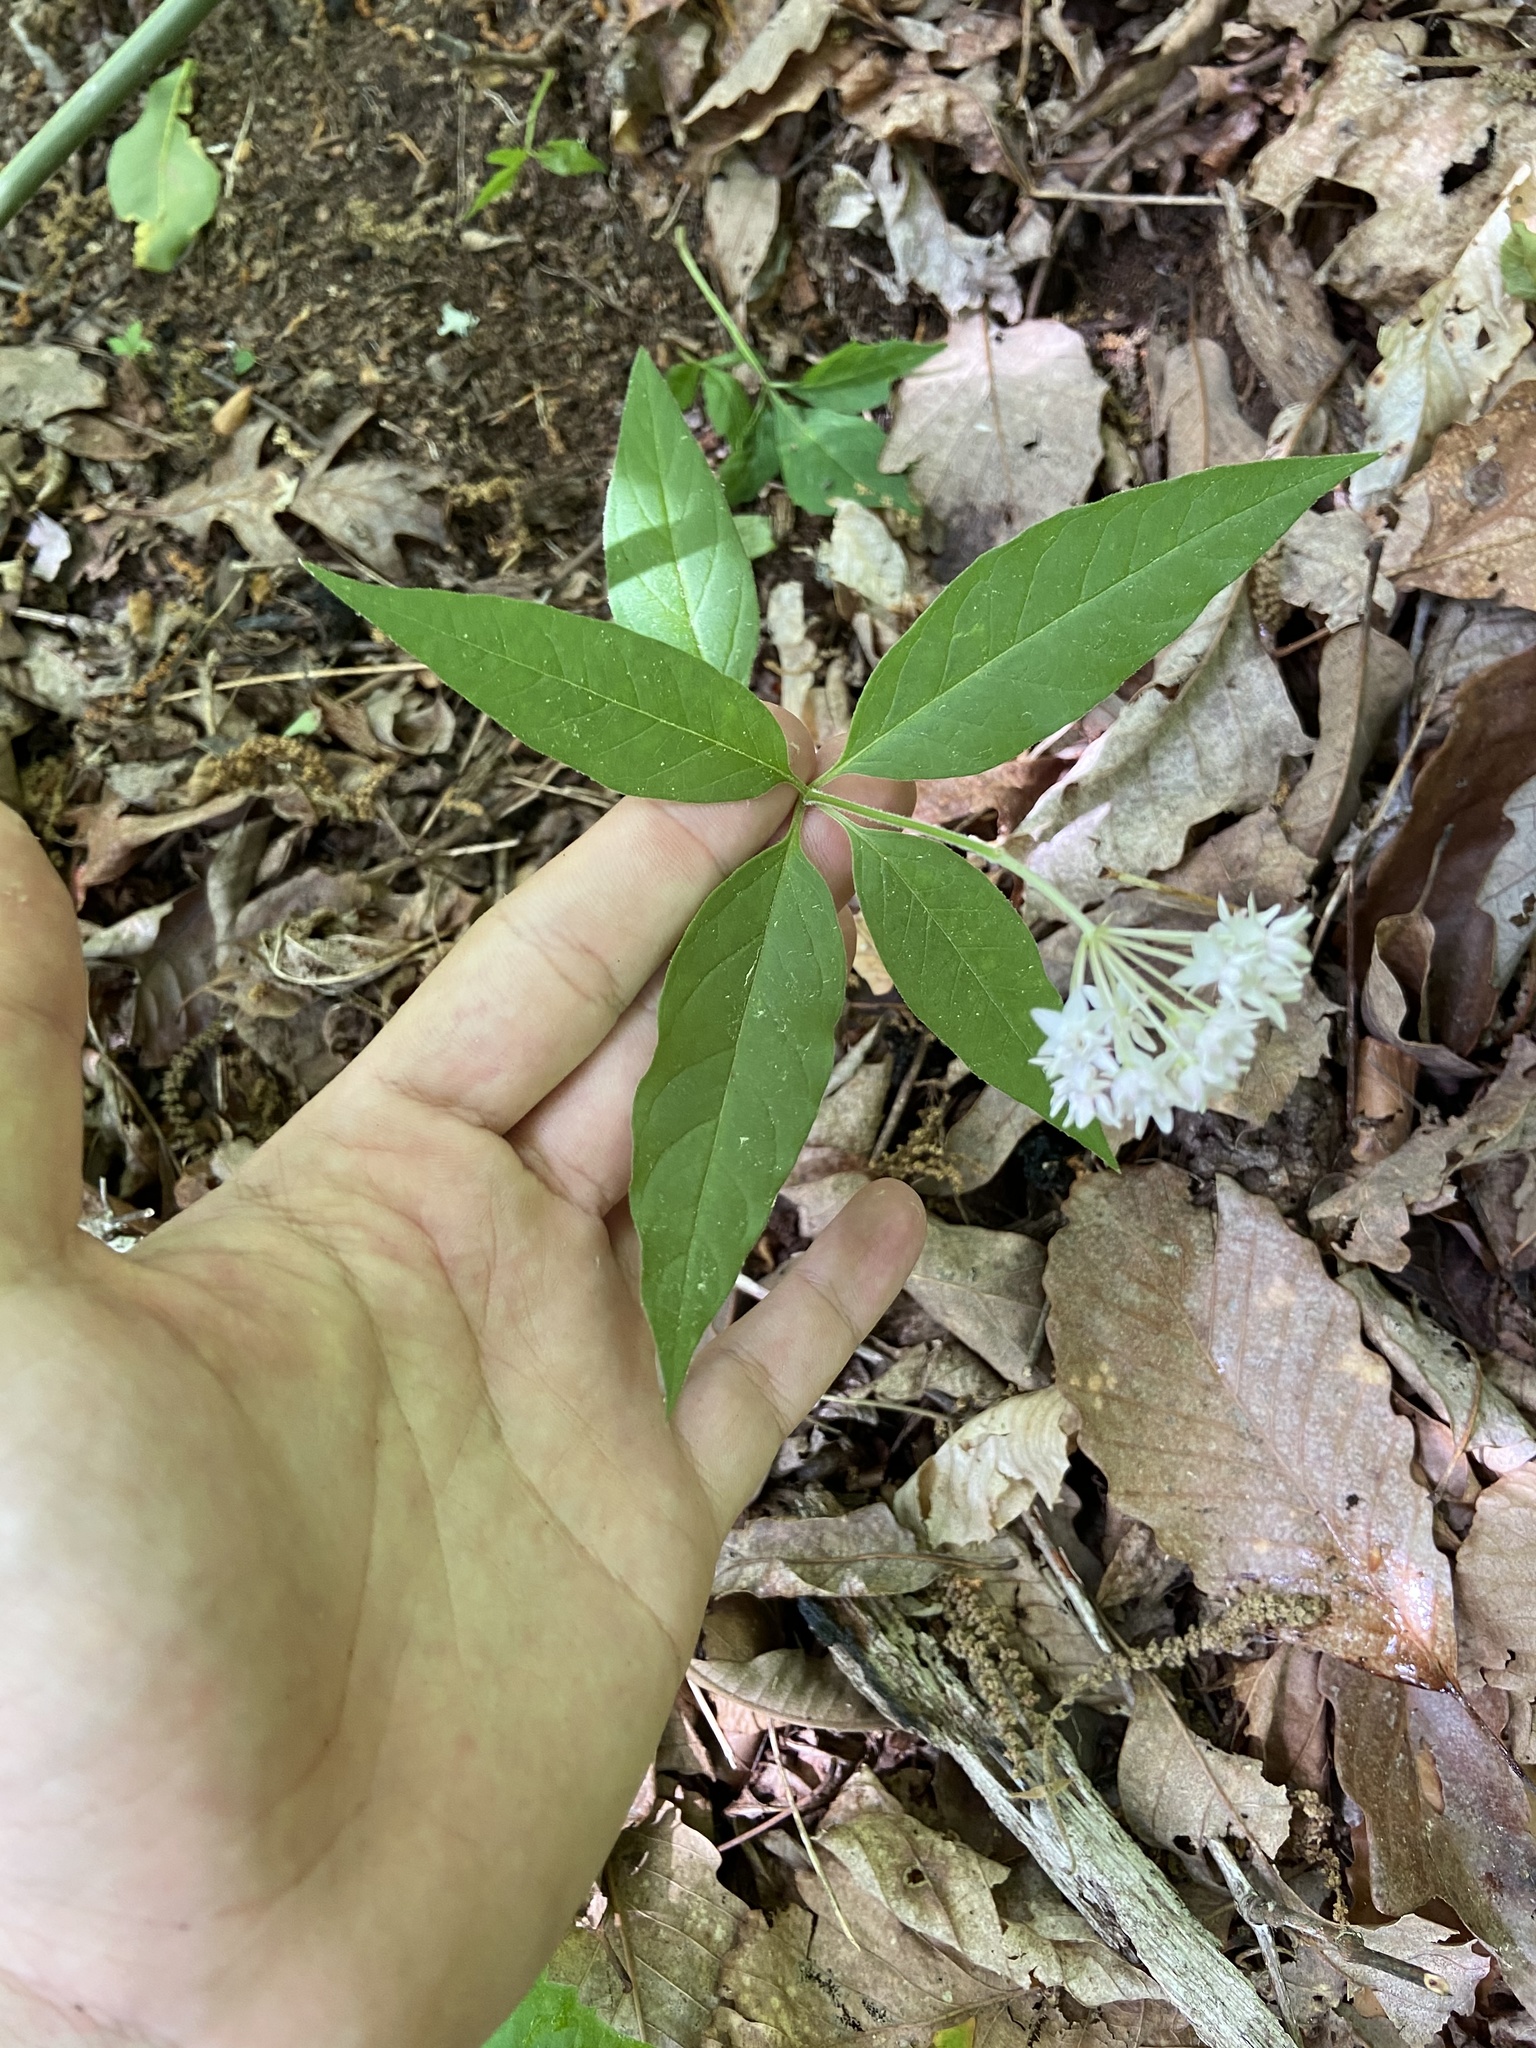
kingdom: Plantae
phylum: Tracheophyta
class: Magnoliopsida
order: Gentianales
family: Apocynaceae
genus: Asclepias
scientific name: Asclepias quadrifolia
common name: Whorled milkweed
